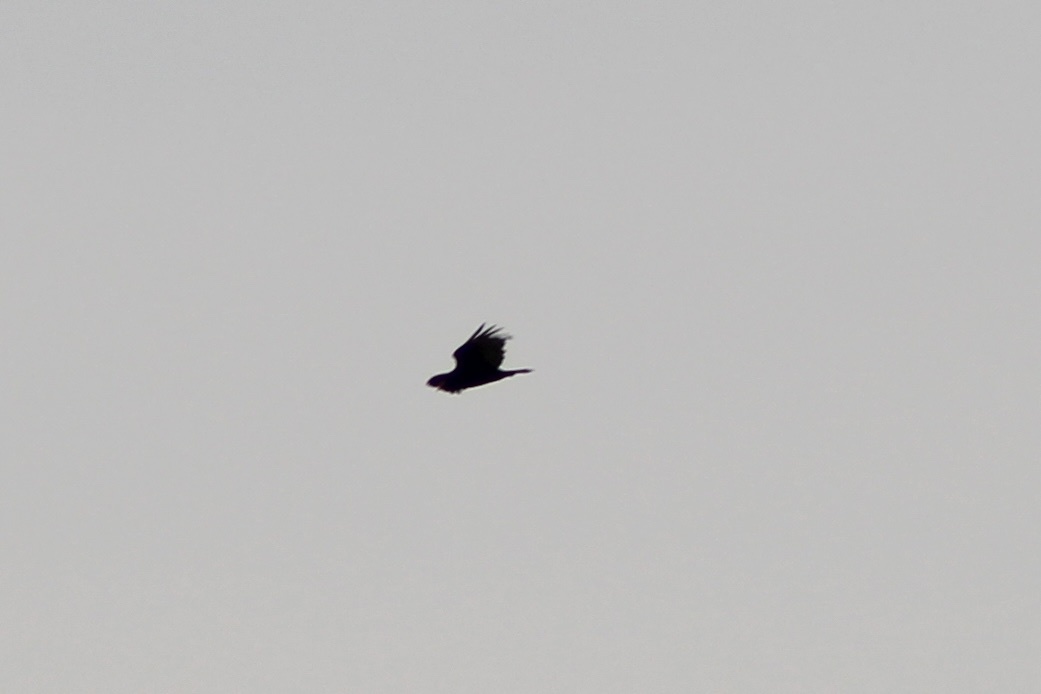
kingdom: Animalia
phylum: Chordata
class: Aves
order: Accipitriformes
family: Cathartidae
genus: Cathartes
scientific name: Cathartes aura
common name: Turkey vulture
